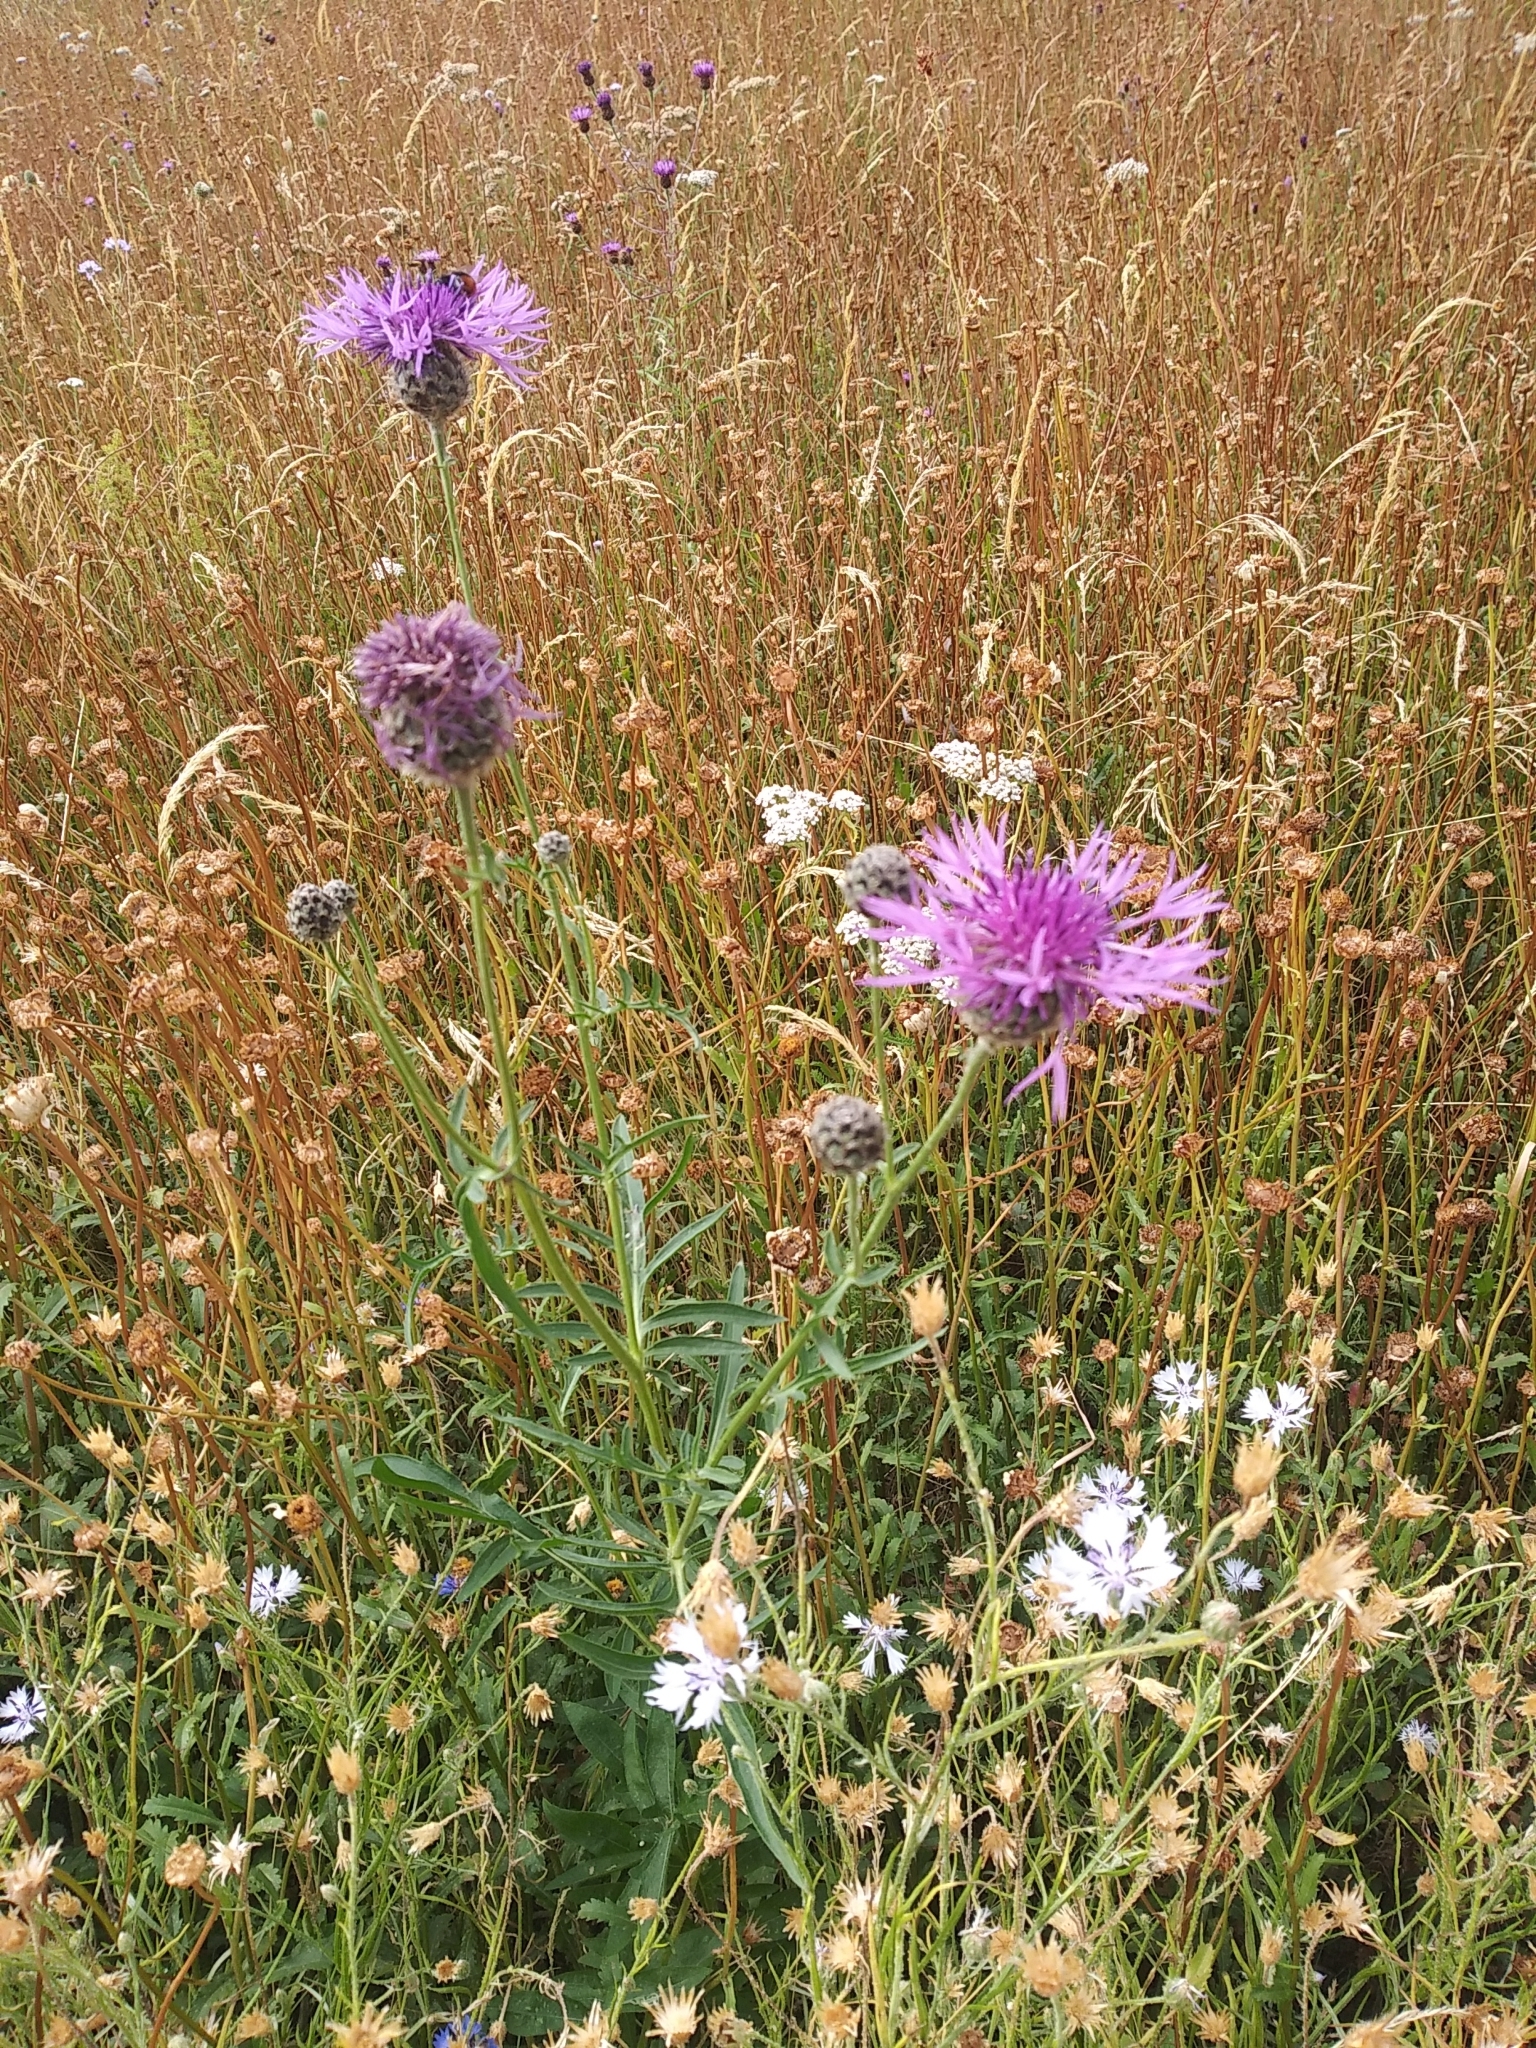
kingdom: Plantae
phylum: Tracheophyta
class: Magnoliopsida
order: Asterales
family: Asteraceae
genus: Centaurea
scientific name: Centaurea scabiosa
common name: Greater knapweed
